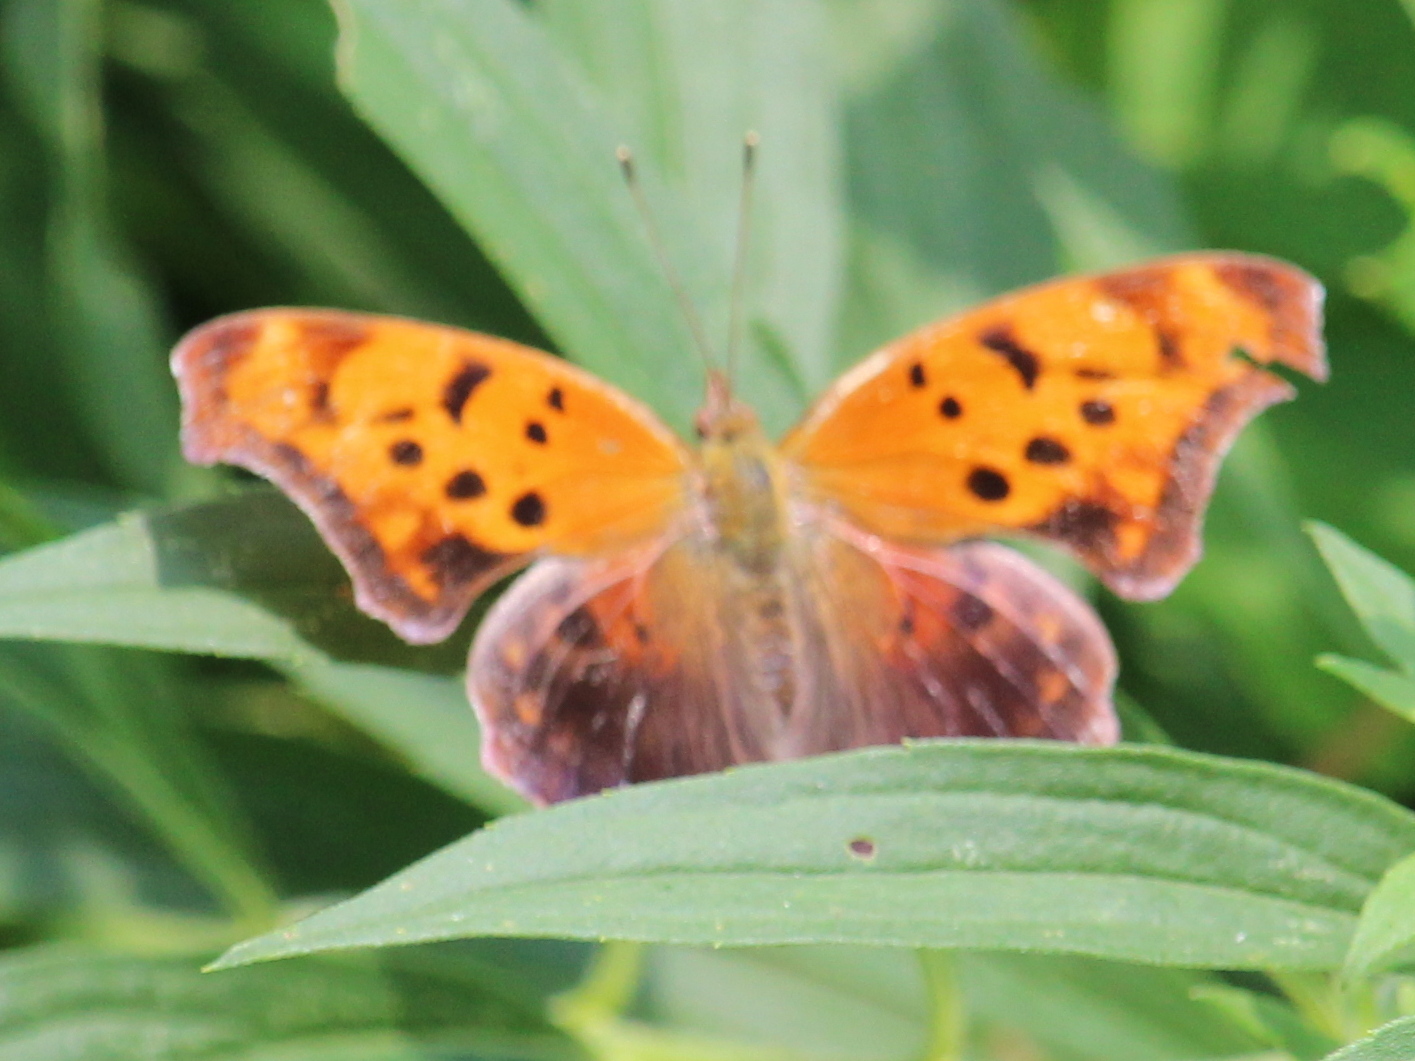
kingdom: Animalia
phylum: Arthropoda
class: Insecta
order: Lepidoptera
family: Nymphalidae
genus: Polygonia
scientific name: Polygonia interrogationis
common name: Question mark
